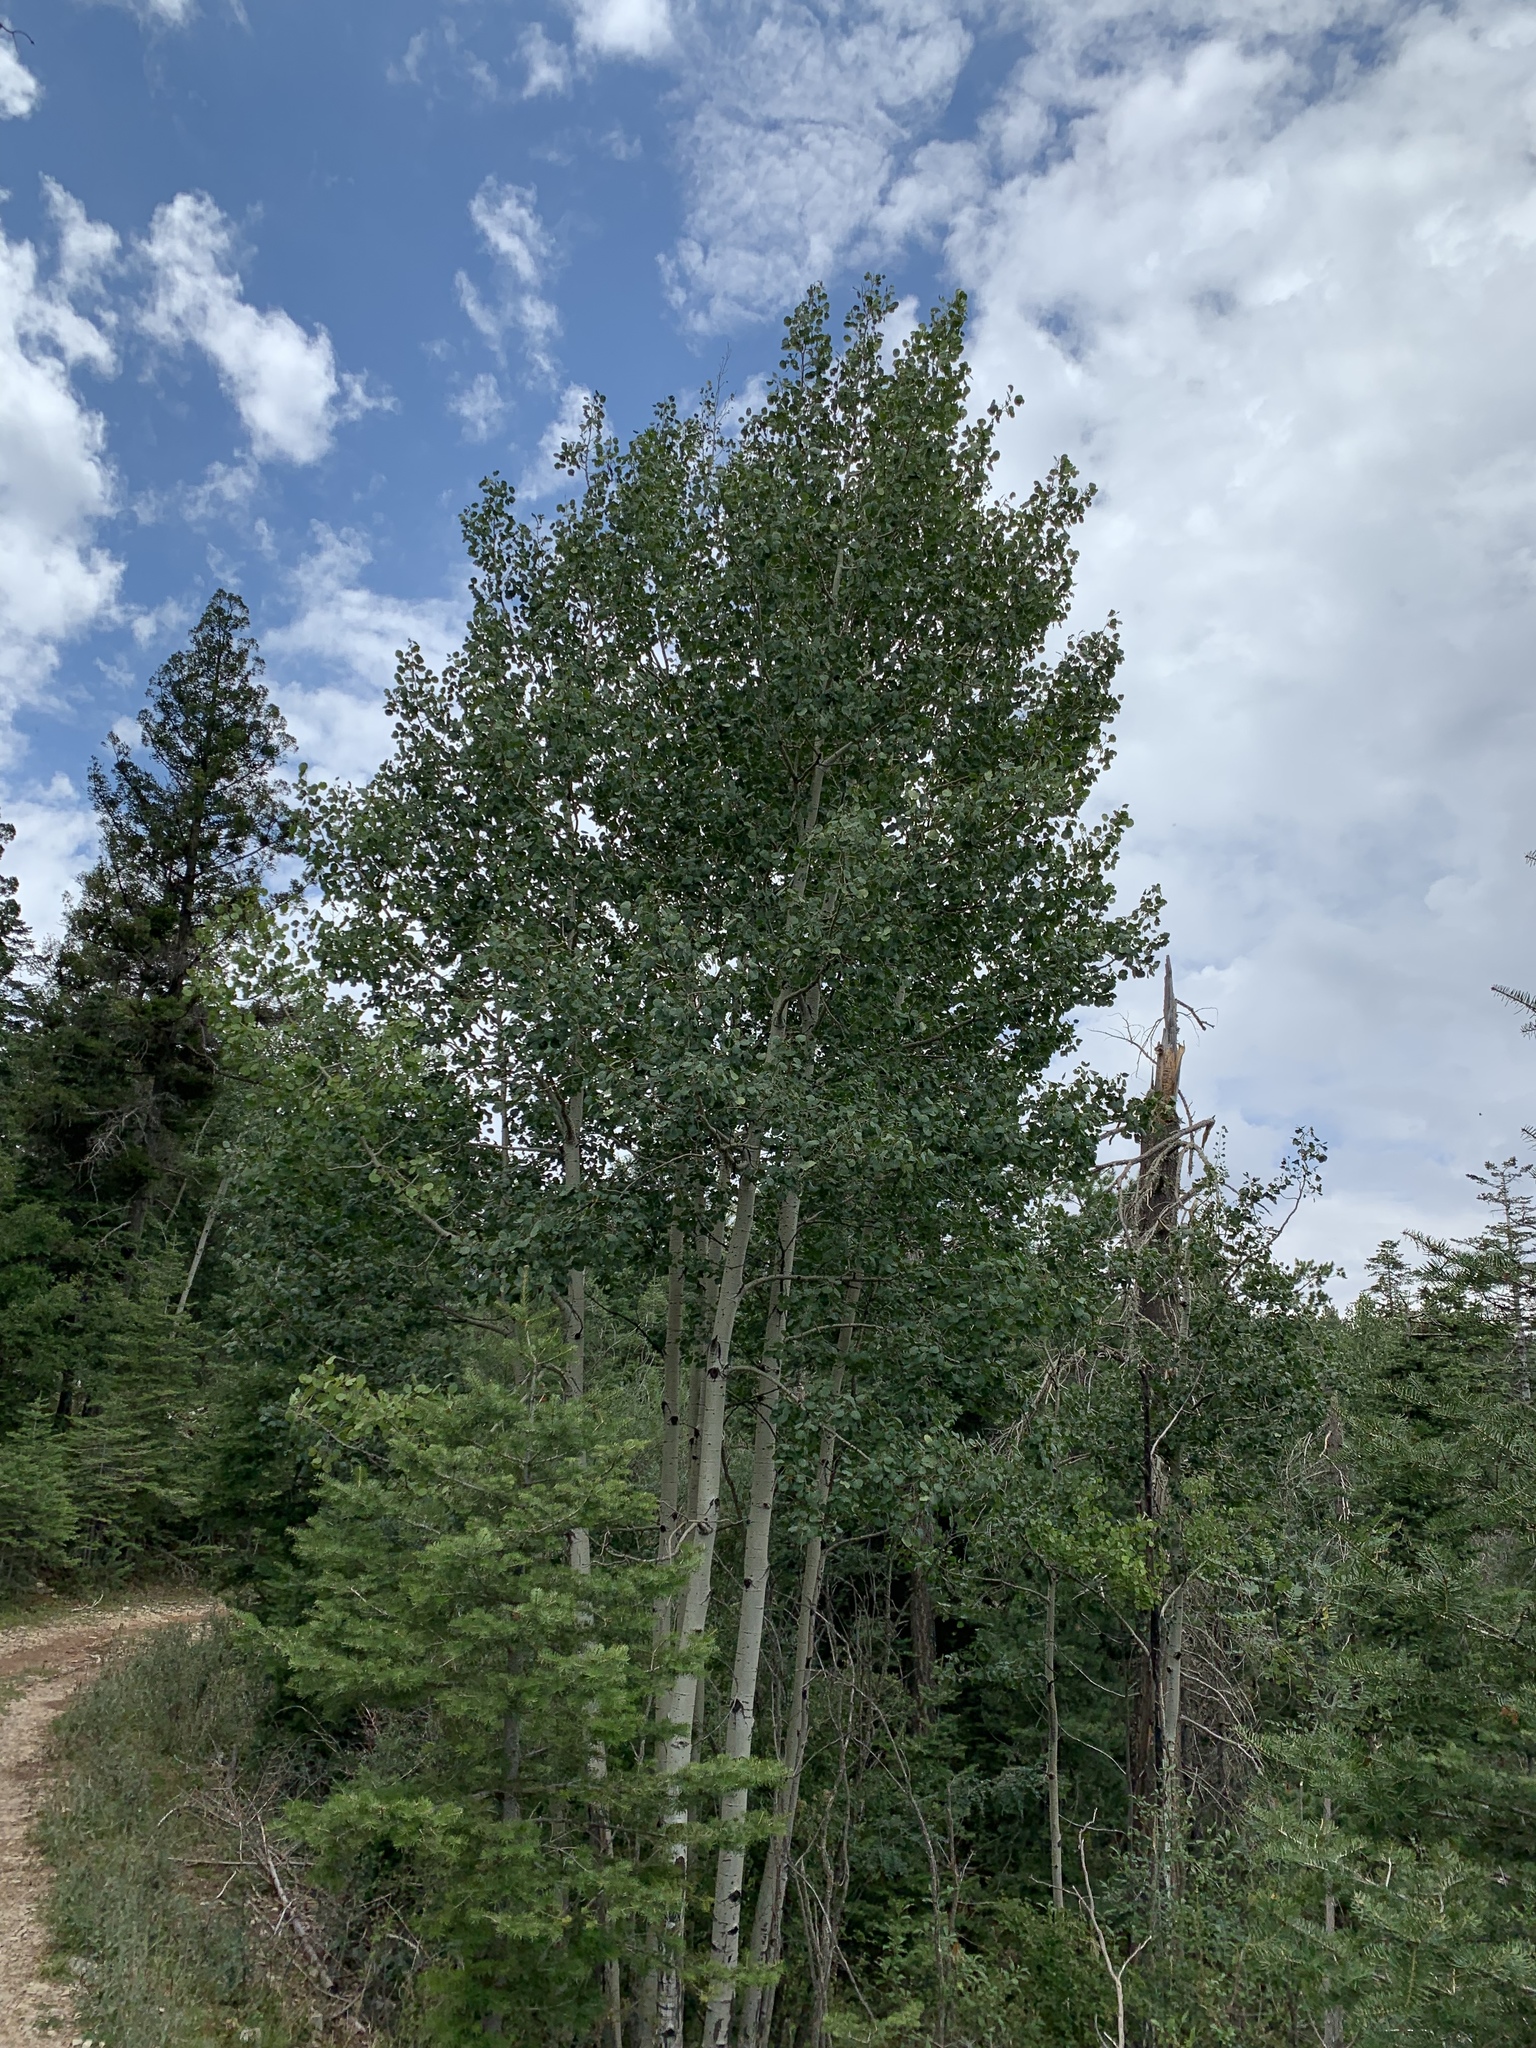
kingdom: Plantae
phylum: Tracheophyta
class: Magnoliopsida
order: Malpighiales
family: Salicaceae
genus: Populus
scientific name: Populus tremuloides
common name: Quaking aspen
